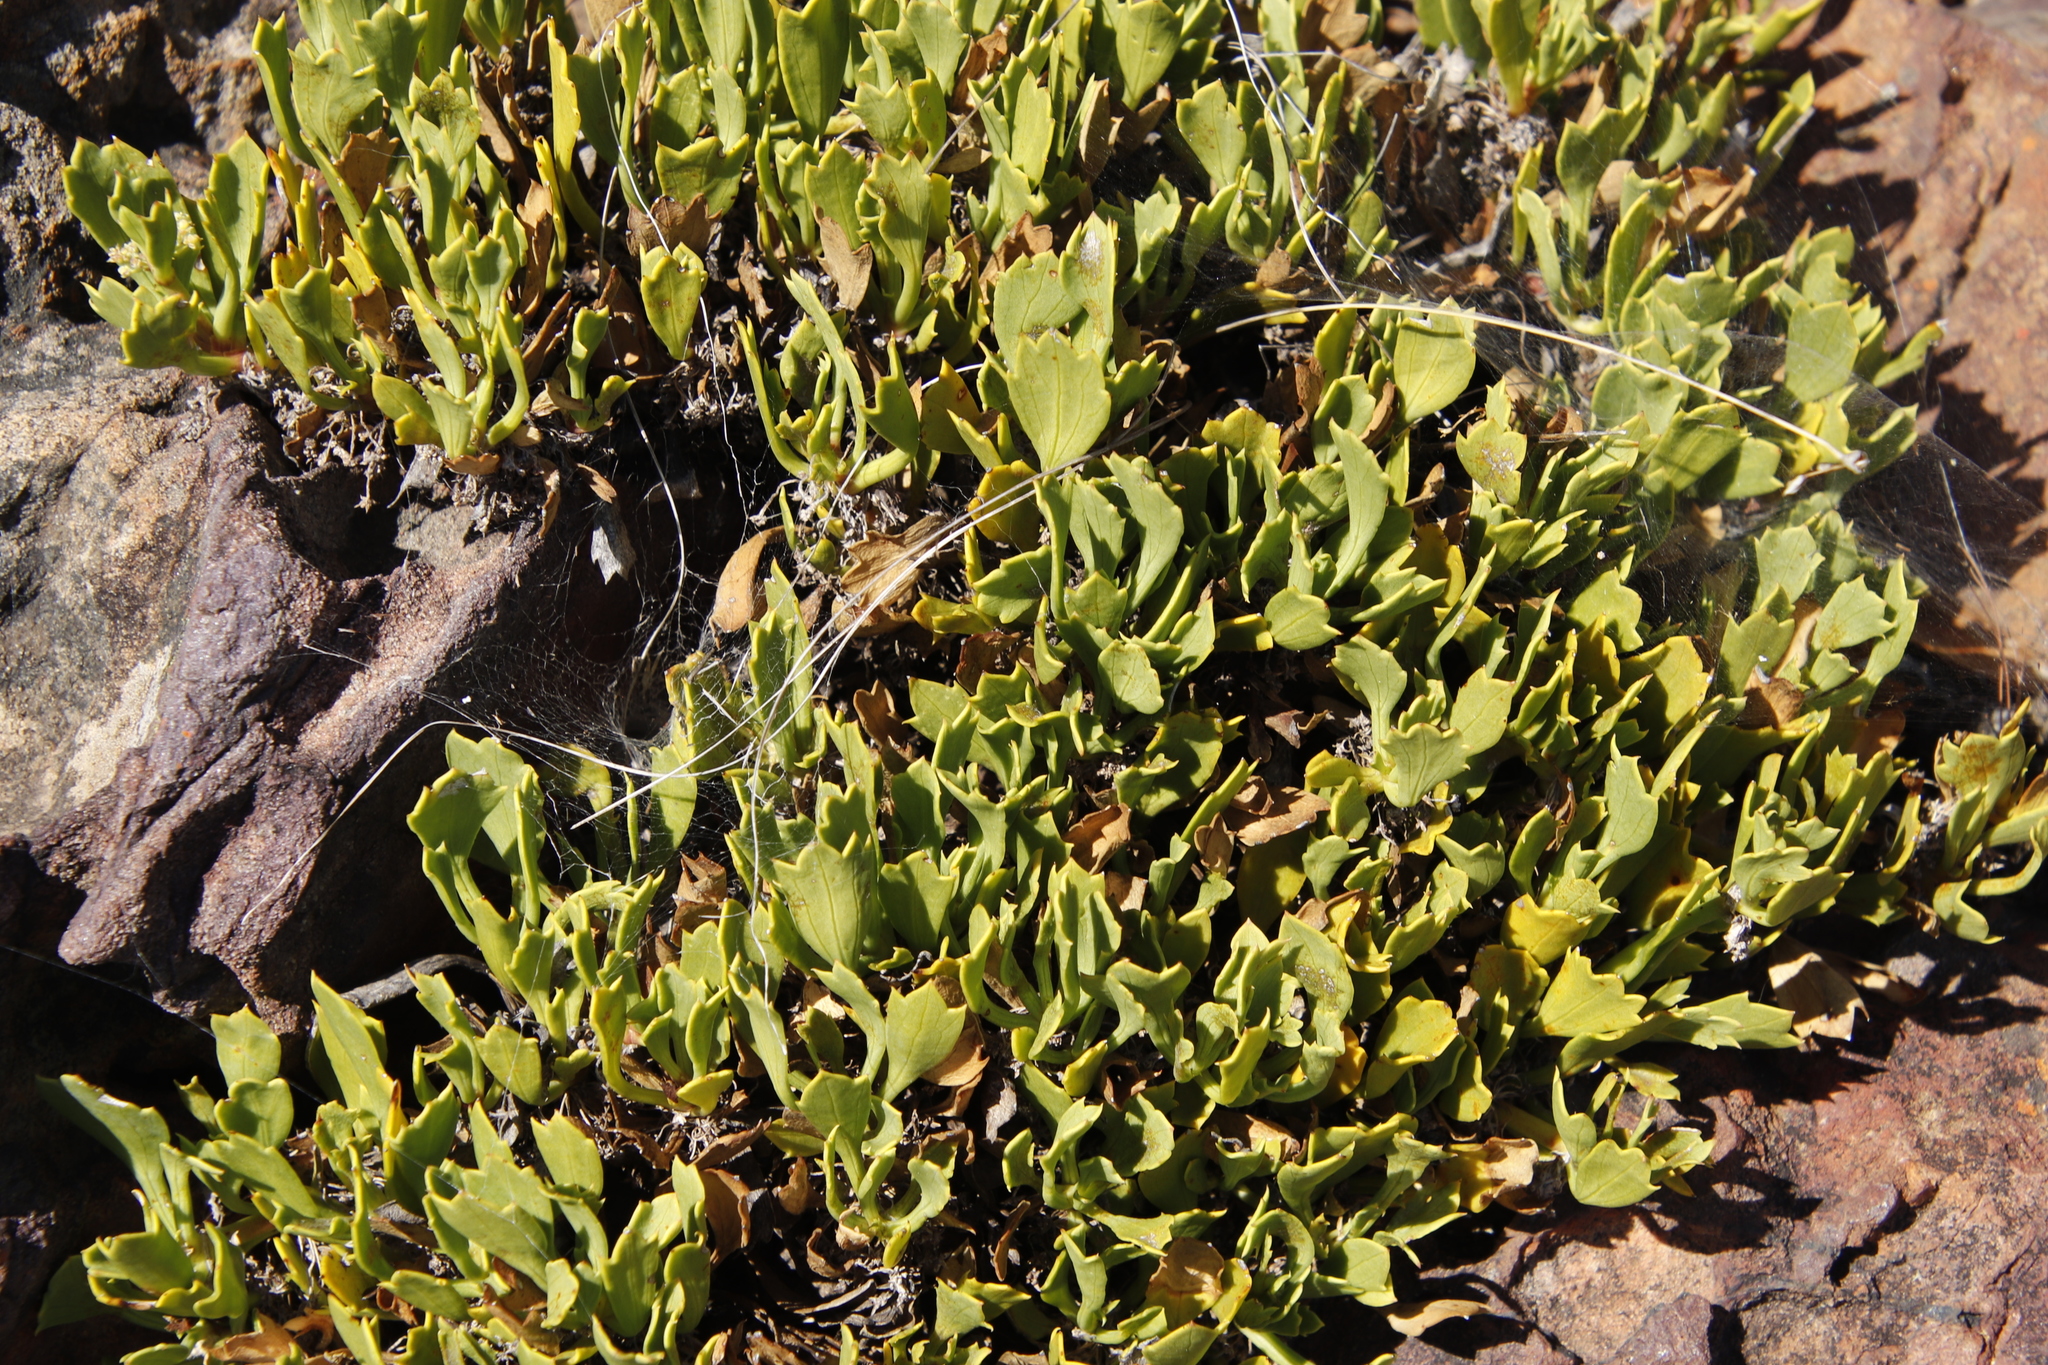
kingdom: Plantae
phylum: Tracheophyta
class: Magnoliopsida
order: Apiales
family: Apiaceae
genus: Centella
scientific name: Centella triloba
